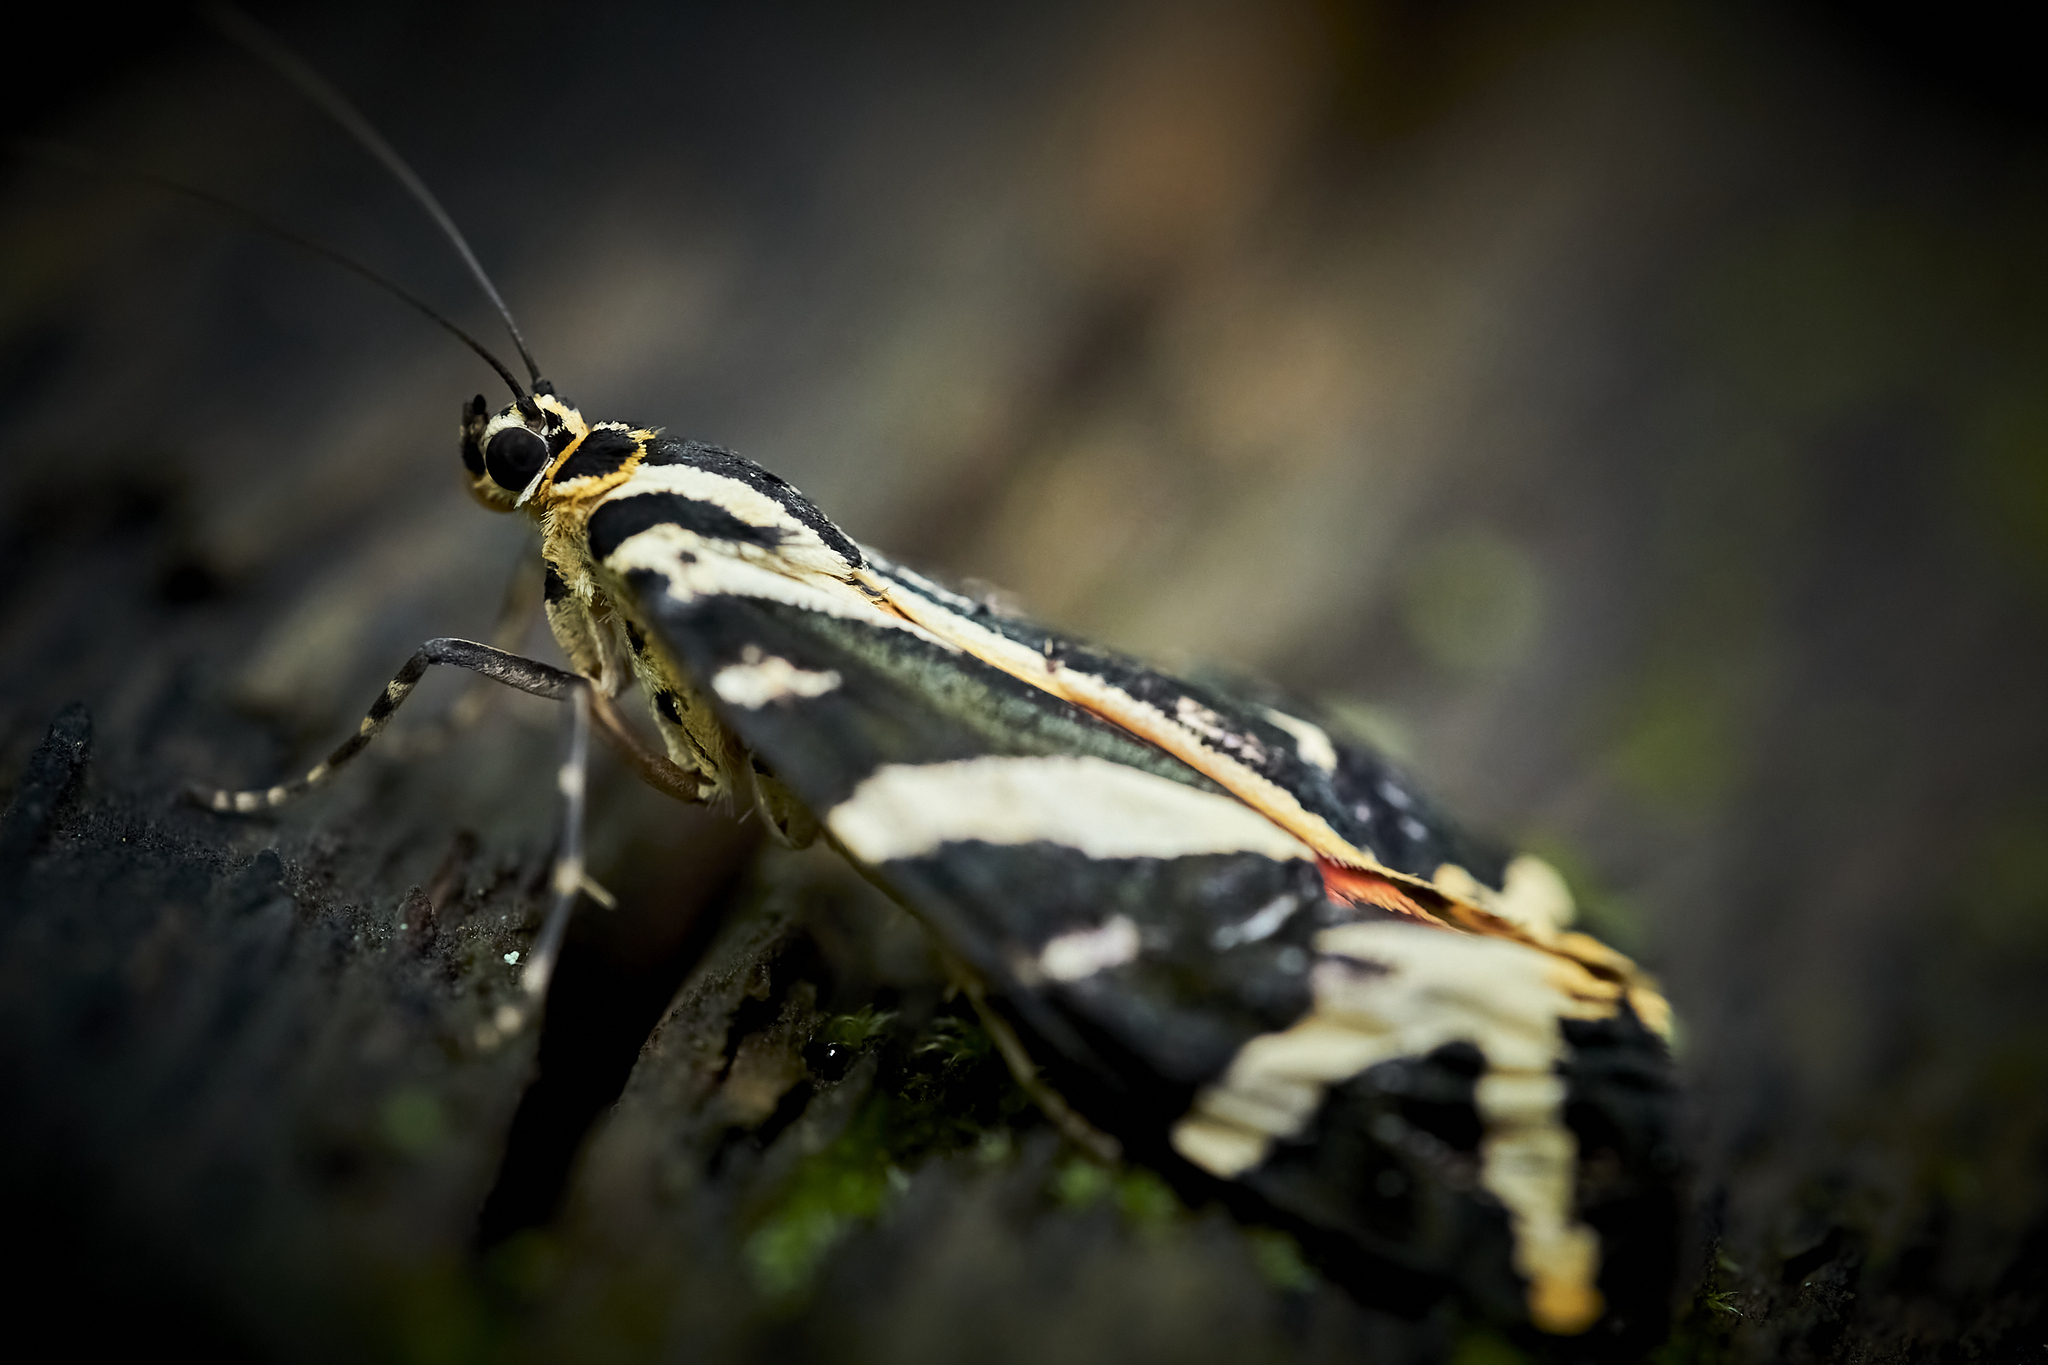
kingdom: Animalia
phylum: Arthropoda
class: Insecta
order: Lepidoptera
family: Erebidae
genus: Euplagia
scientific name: Euplagia quadripunctaria
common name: Jersey tiger
